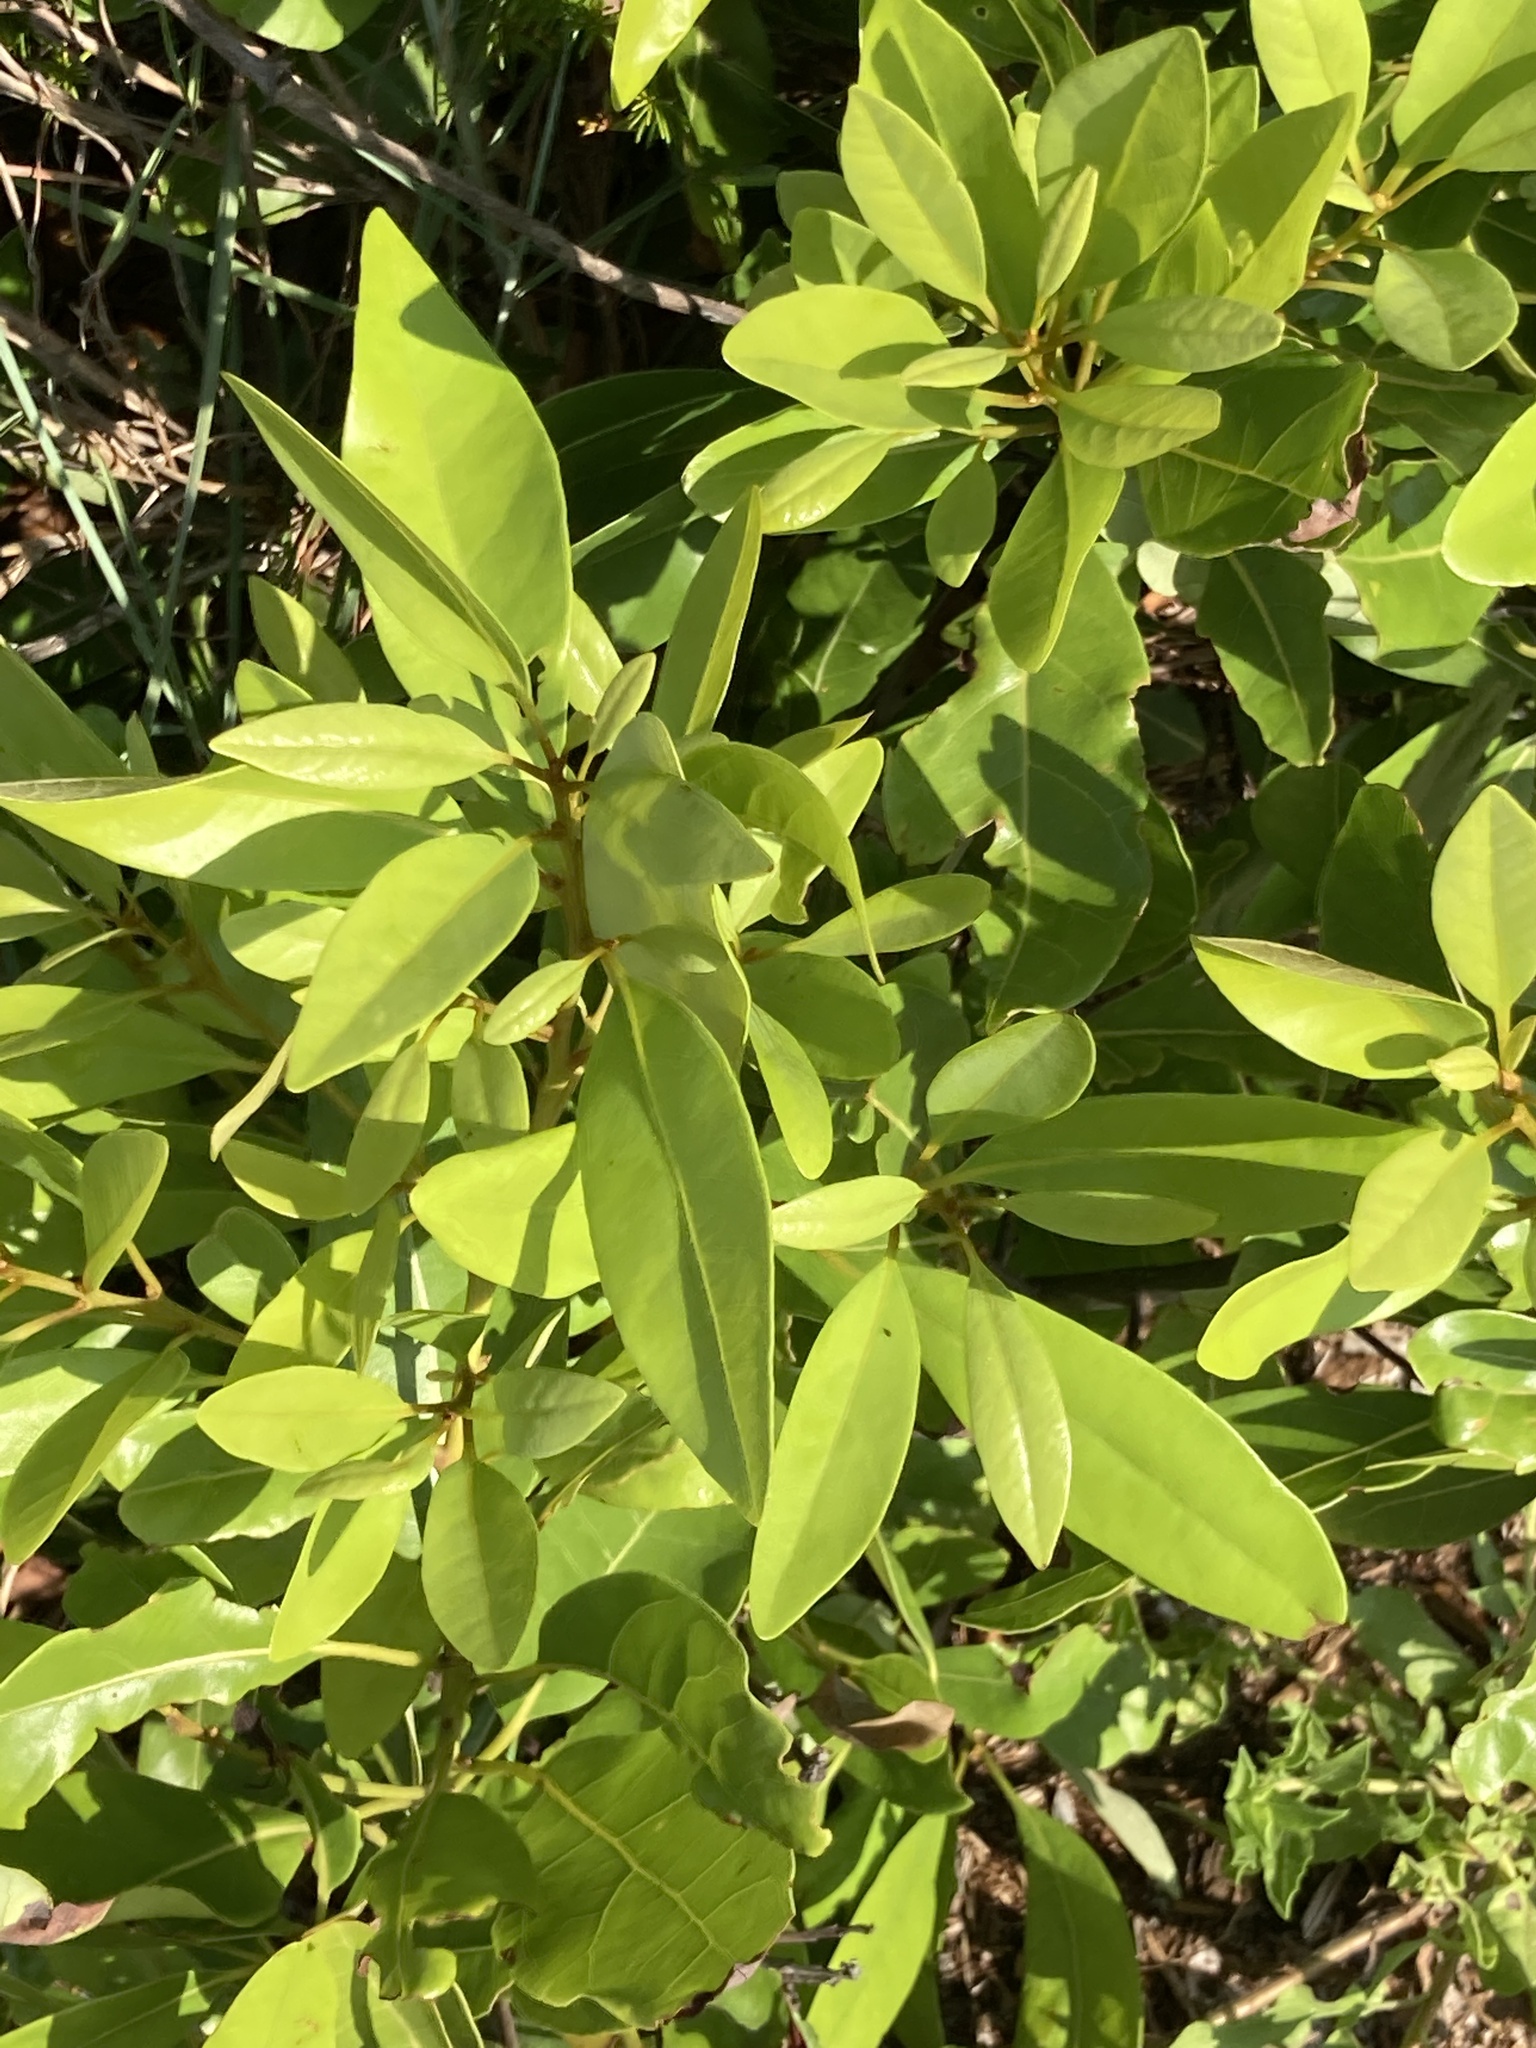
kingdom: Plantae
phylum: Tracheophyta
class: Magnoliopsida
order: Laurales
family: Lauraceae
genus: Persea
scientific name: Persea borbonia
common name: Redbay
